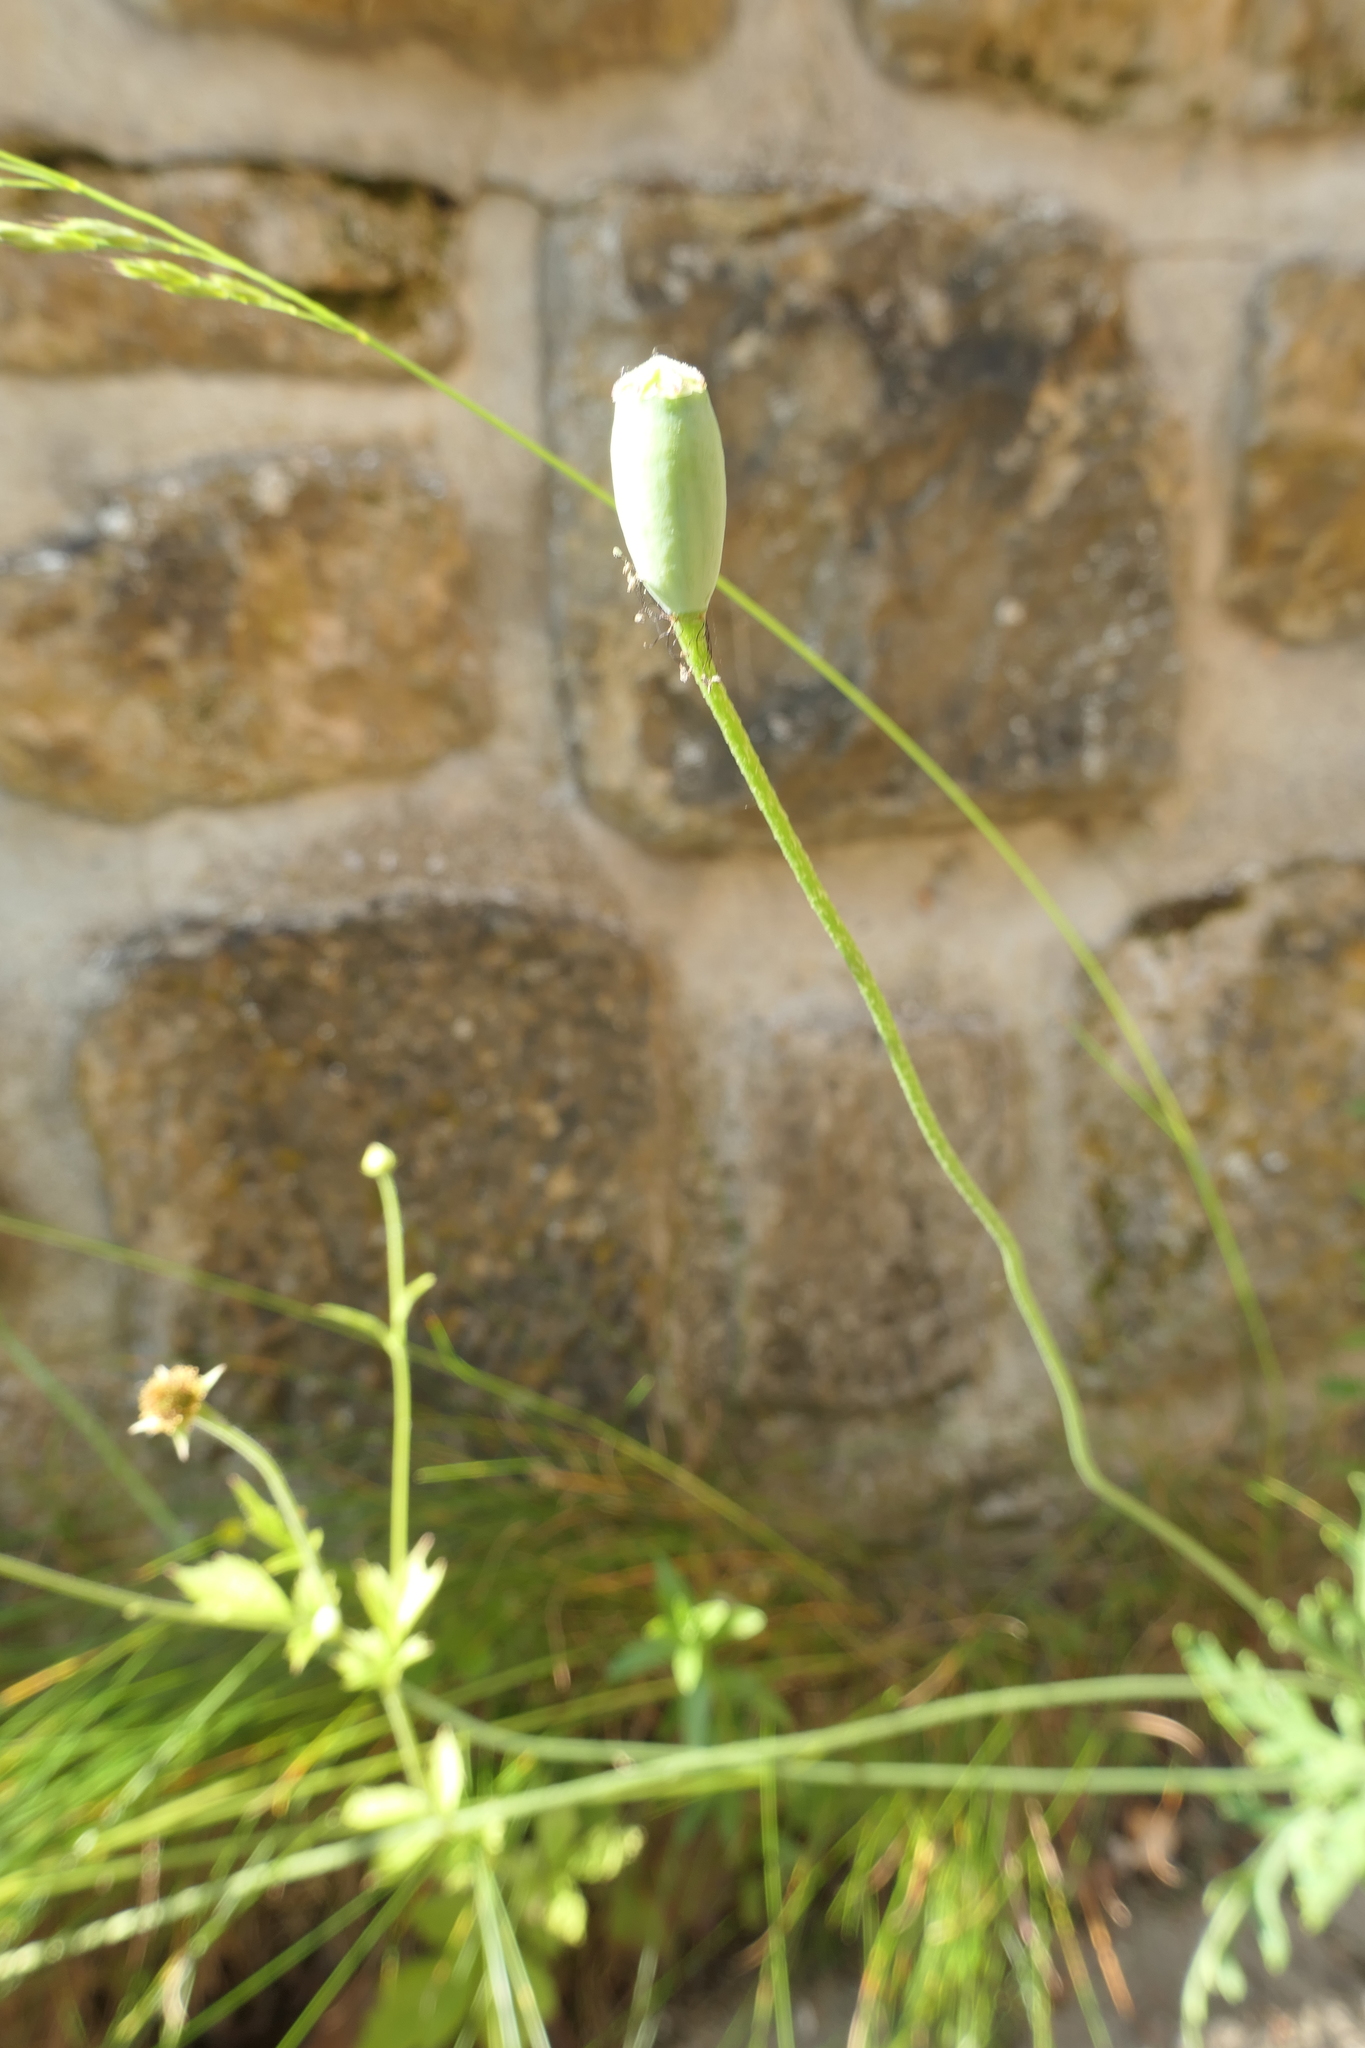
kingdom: Plantae
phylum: Tracheophyta
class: Magnoliopsida
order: Ranunculales
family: Papaveraceae
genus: Papaver
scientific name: Papaver dubium
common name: Long-headed poppy
